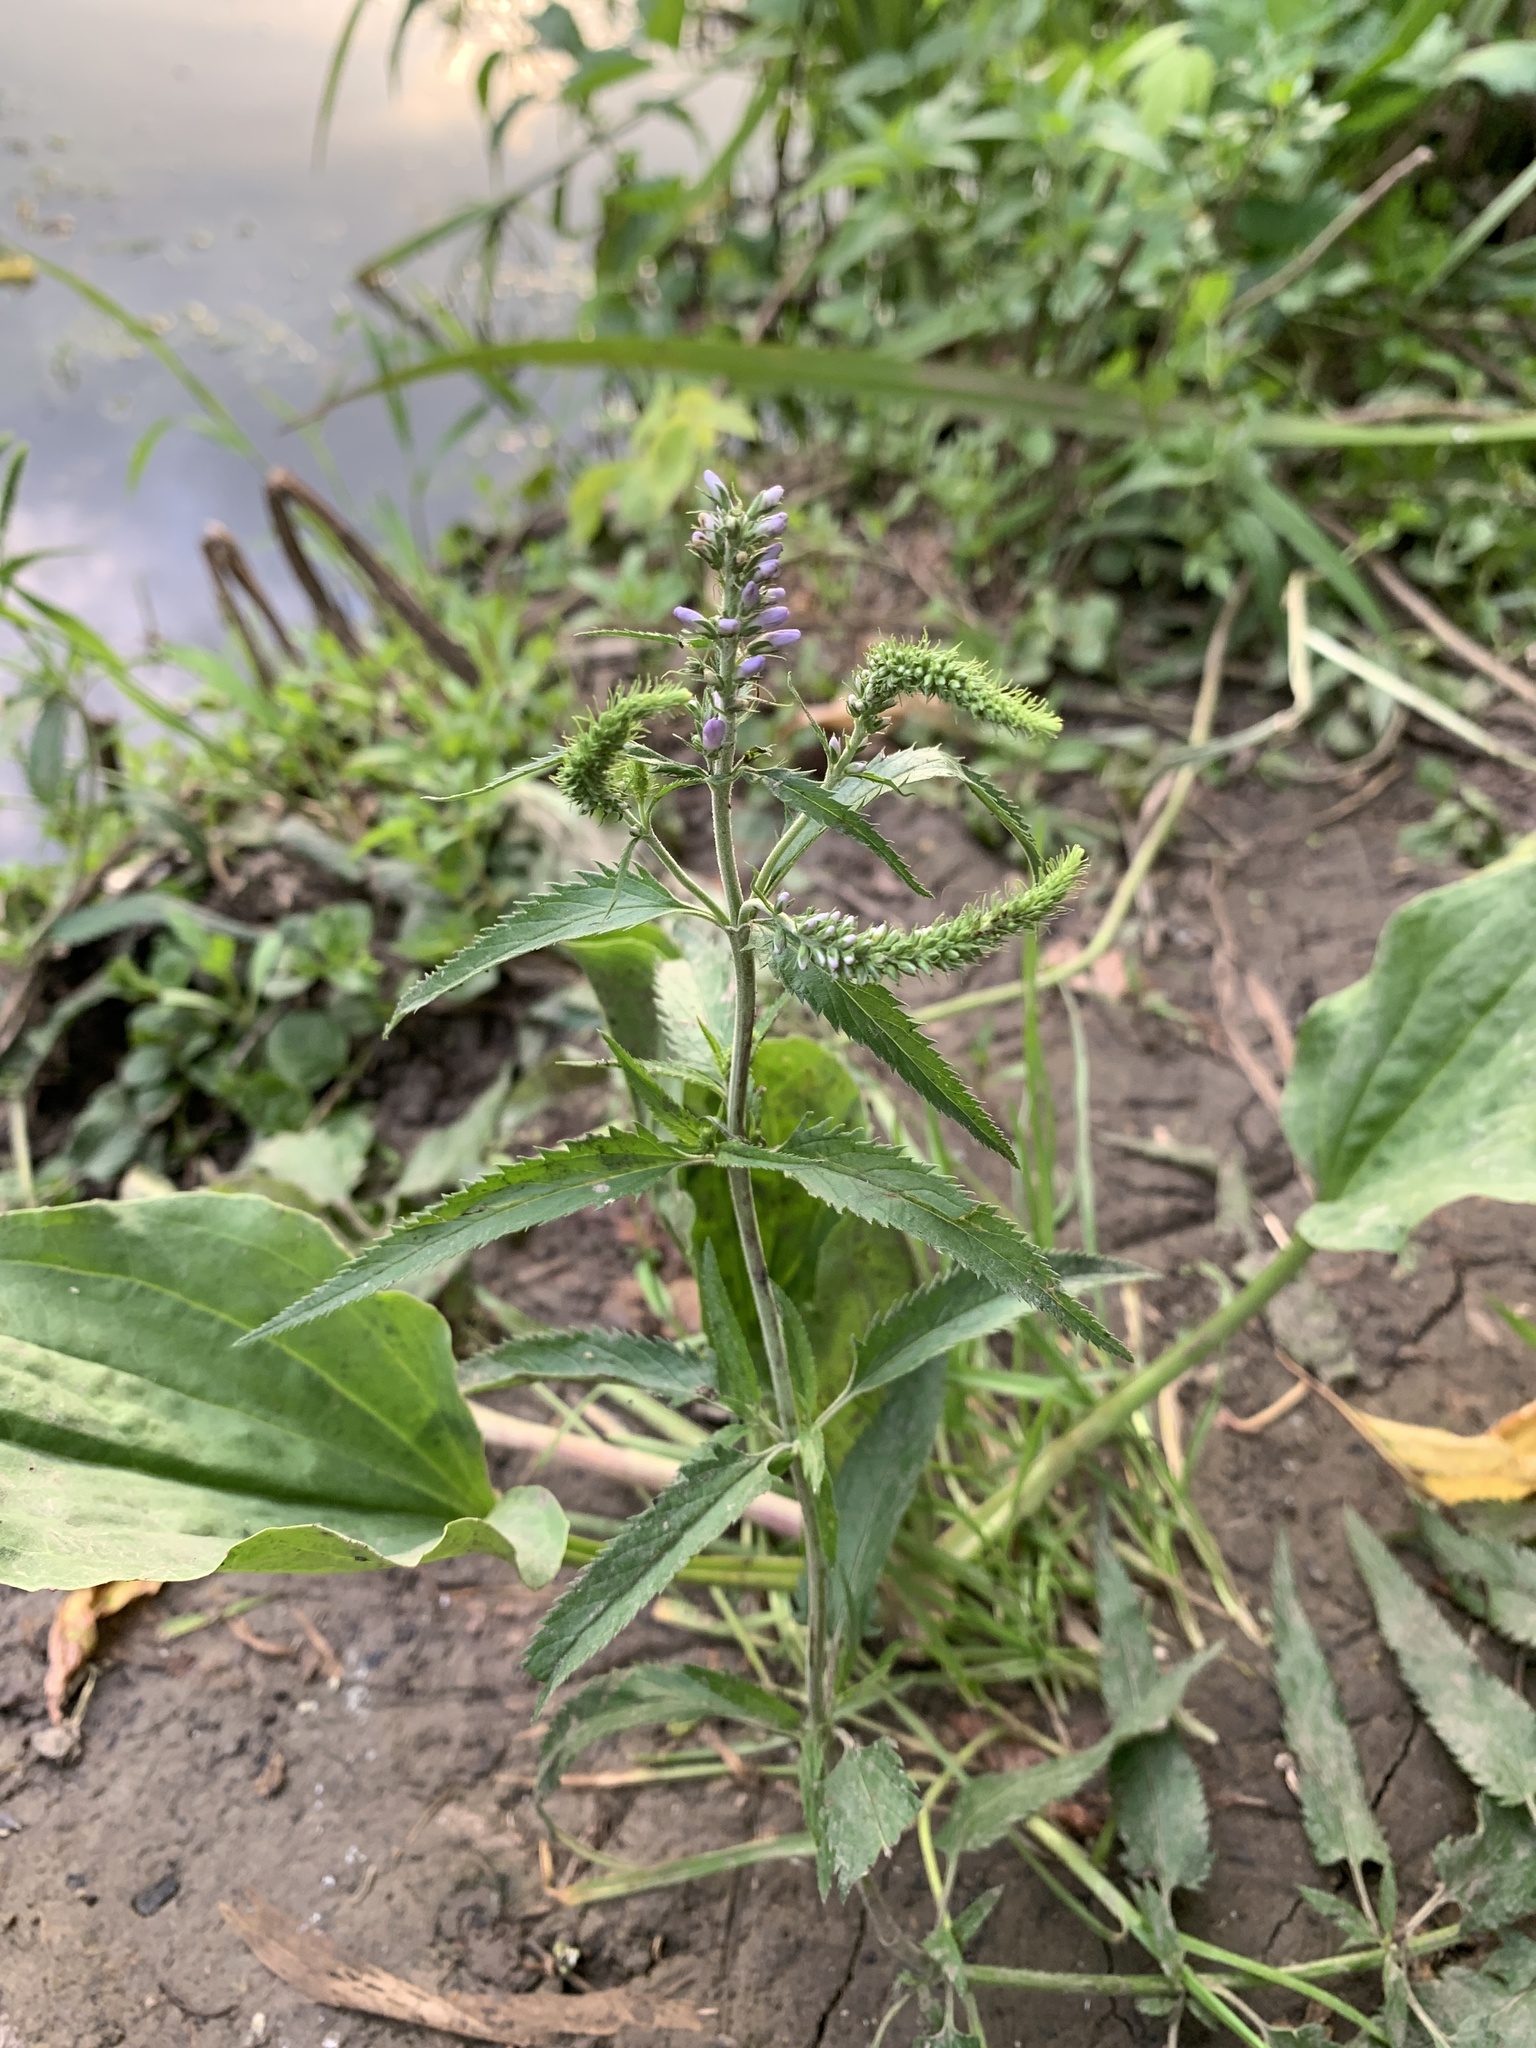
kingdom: Plantae
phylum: Tracheophyta
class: Magnoliopsida
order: Lamiales
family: Plantaginaceae
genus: Veronica
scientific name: Veronica longifolia
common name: Garden speedwell
